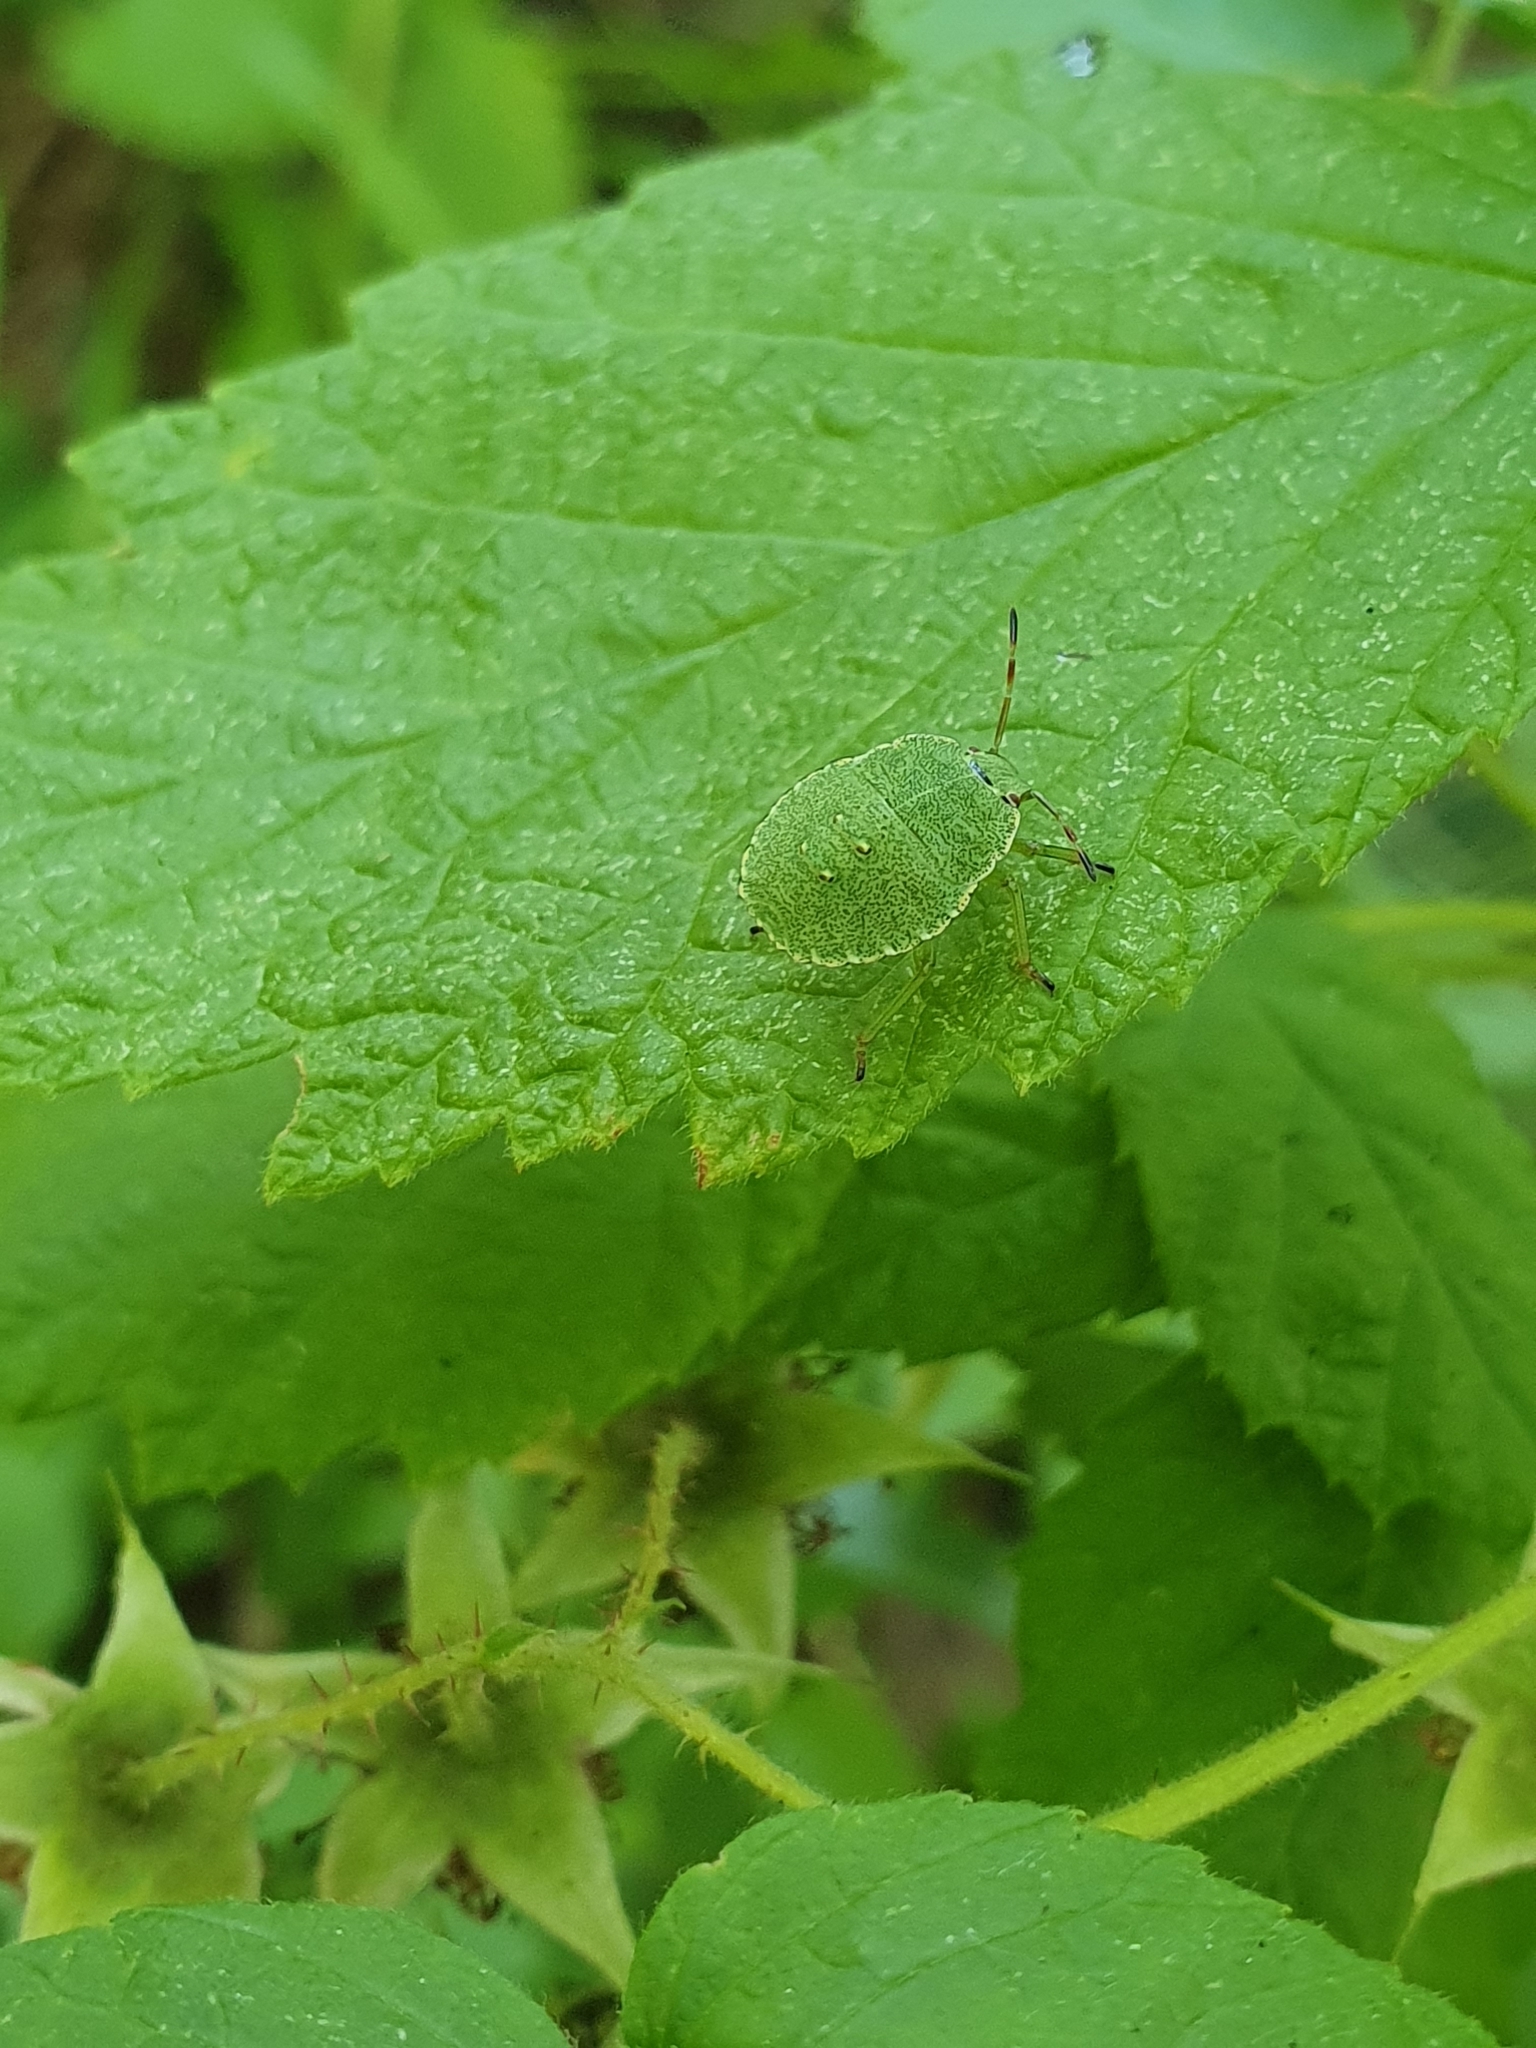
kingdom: Animalia
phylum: Arthropoda
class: Insecta
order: Hemiptera
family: Pentatomidae
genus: Palomena
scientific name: Palomena prasina
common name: Green shieldbug
